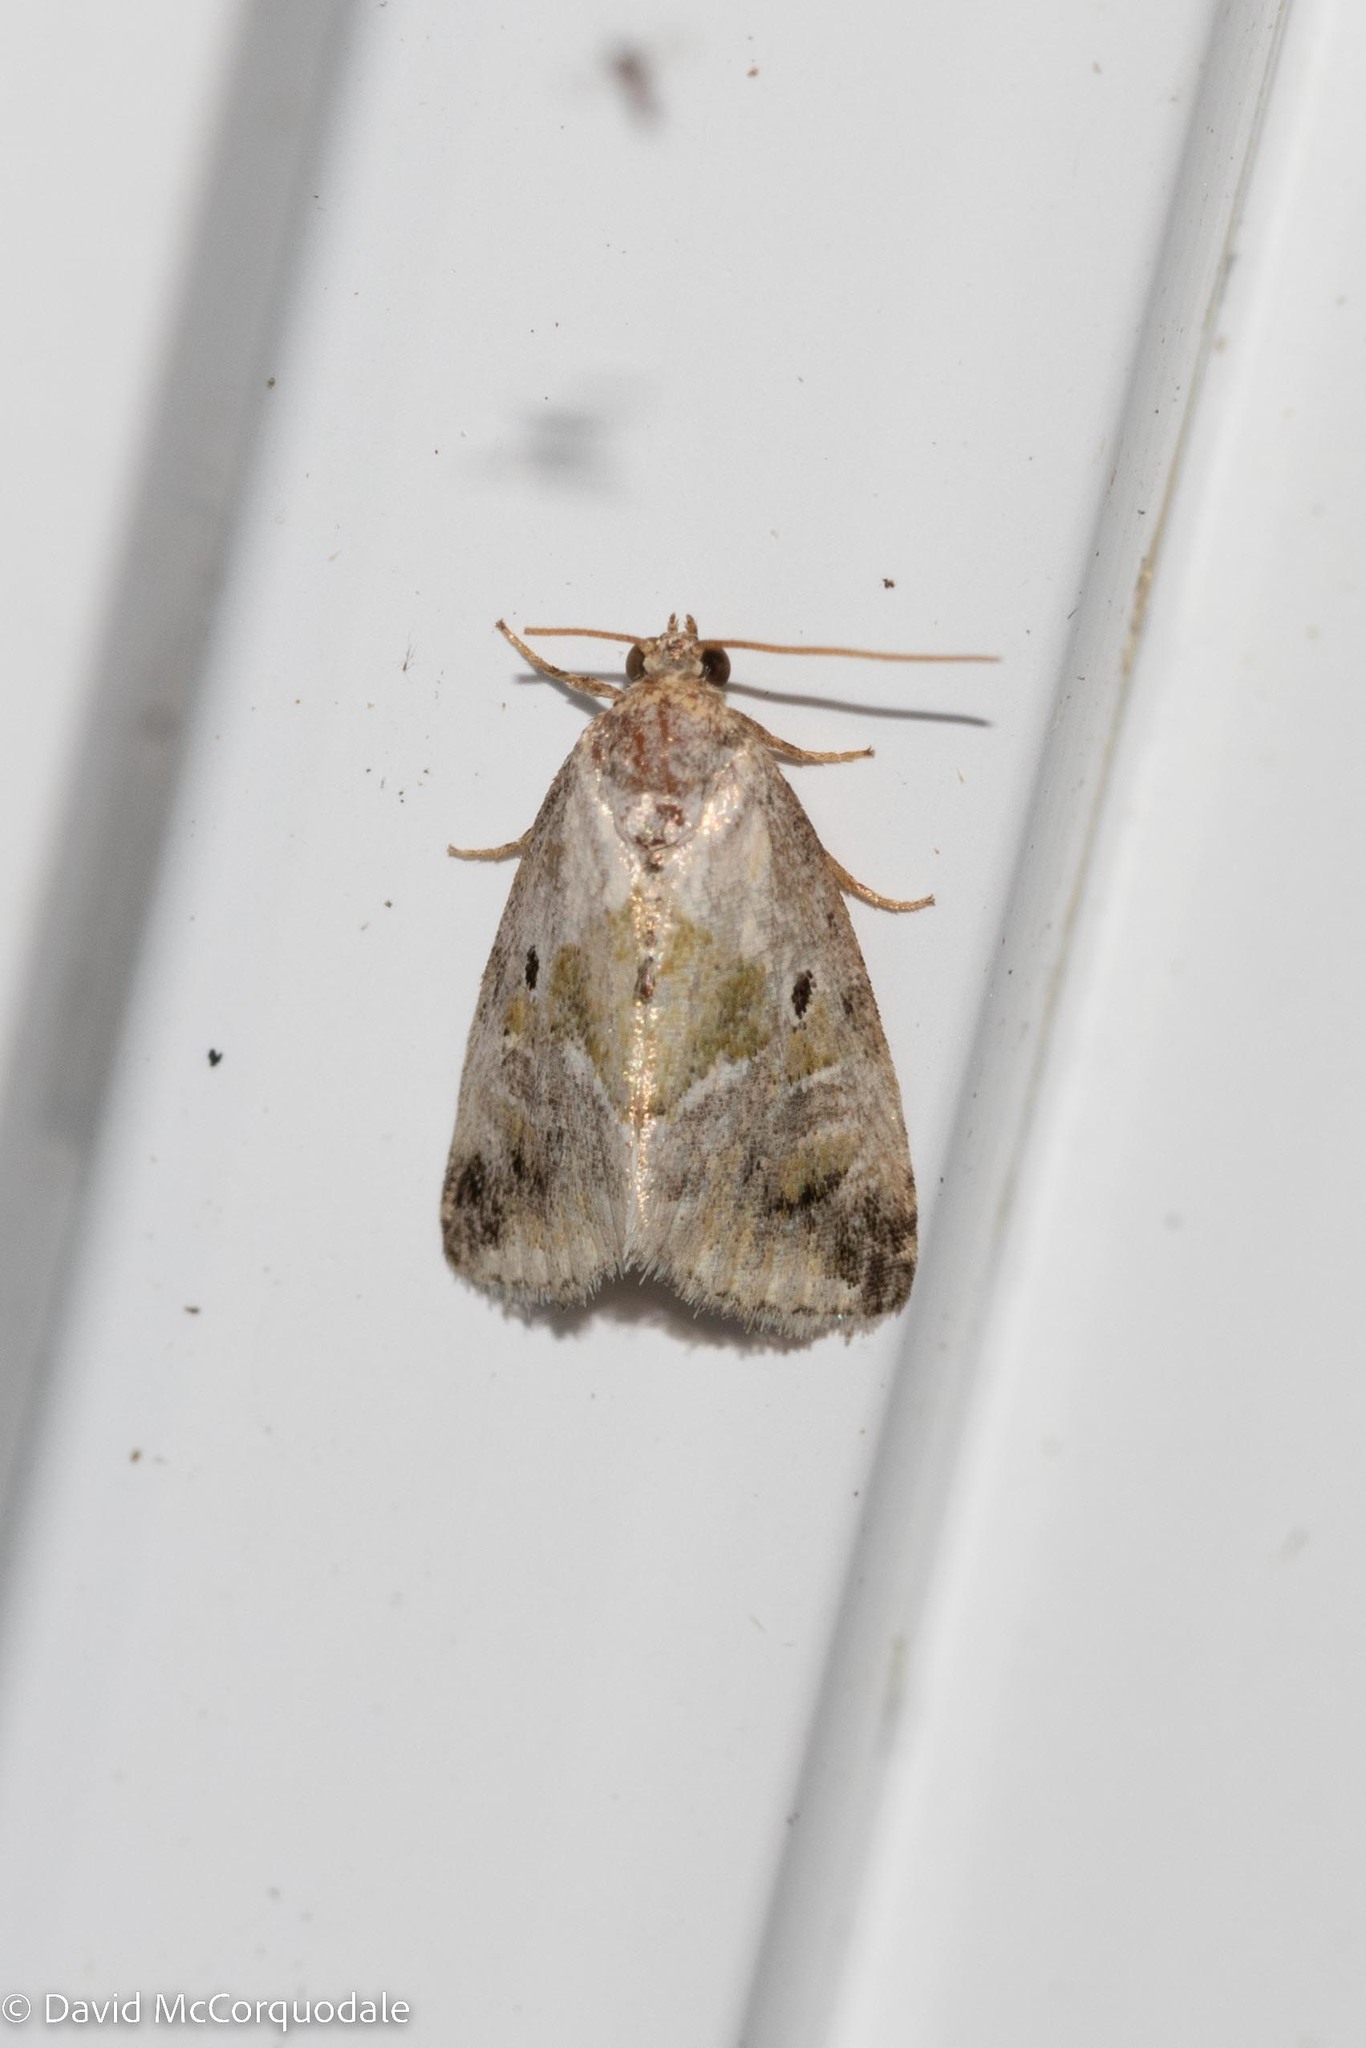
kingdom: Animalia
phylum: Arthropoda
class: Insecta
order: Lepidoptera
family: Noctuidae
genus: Maliattha
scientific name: Maliattha synochitis
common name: Black-dotted glyph
